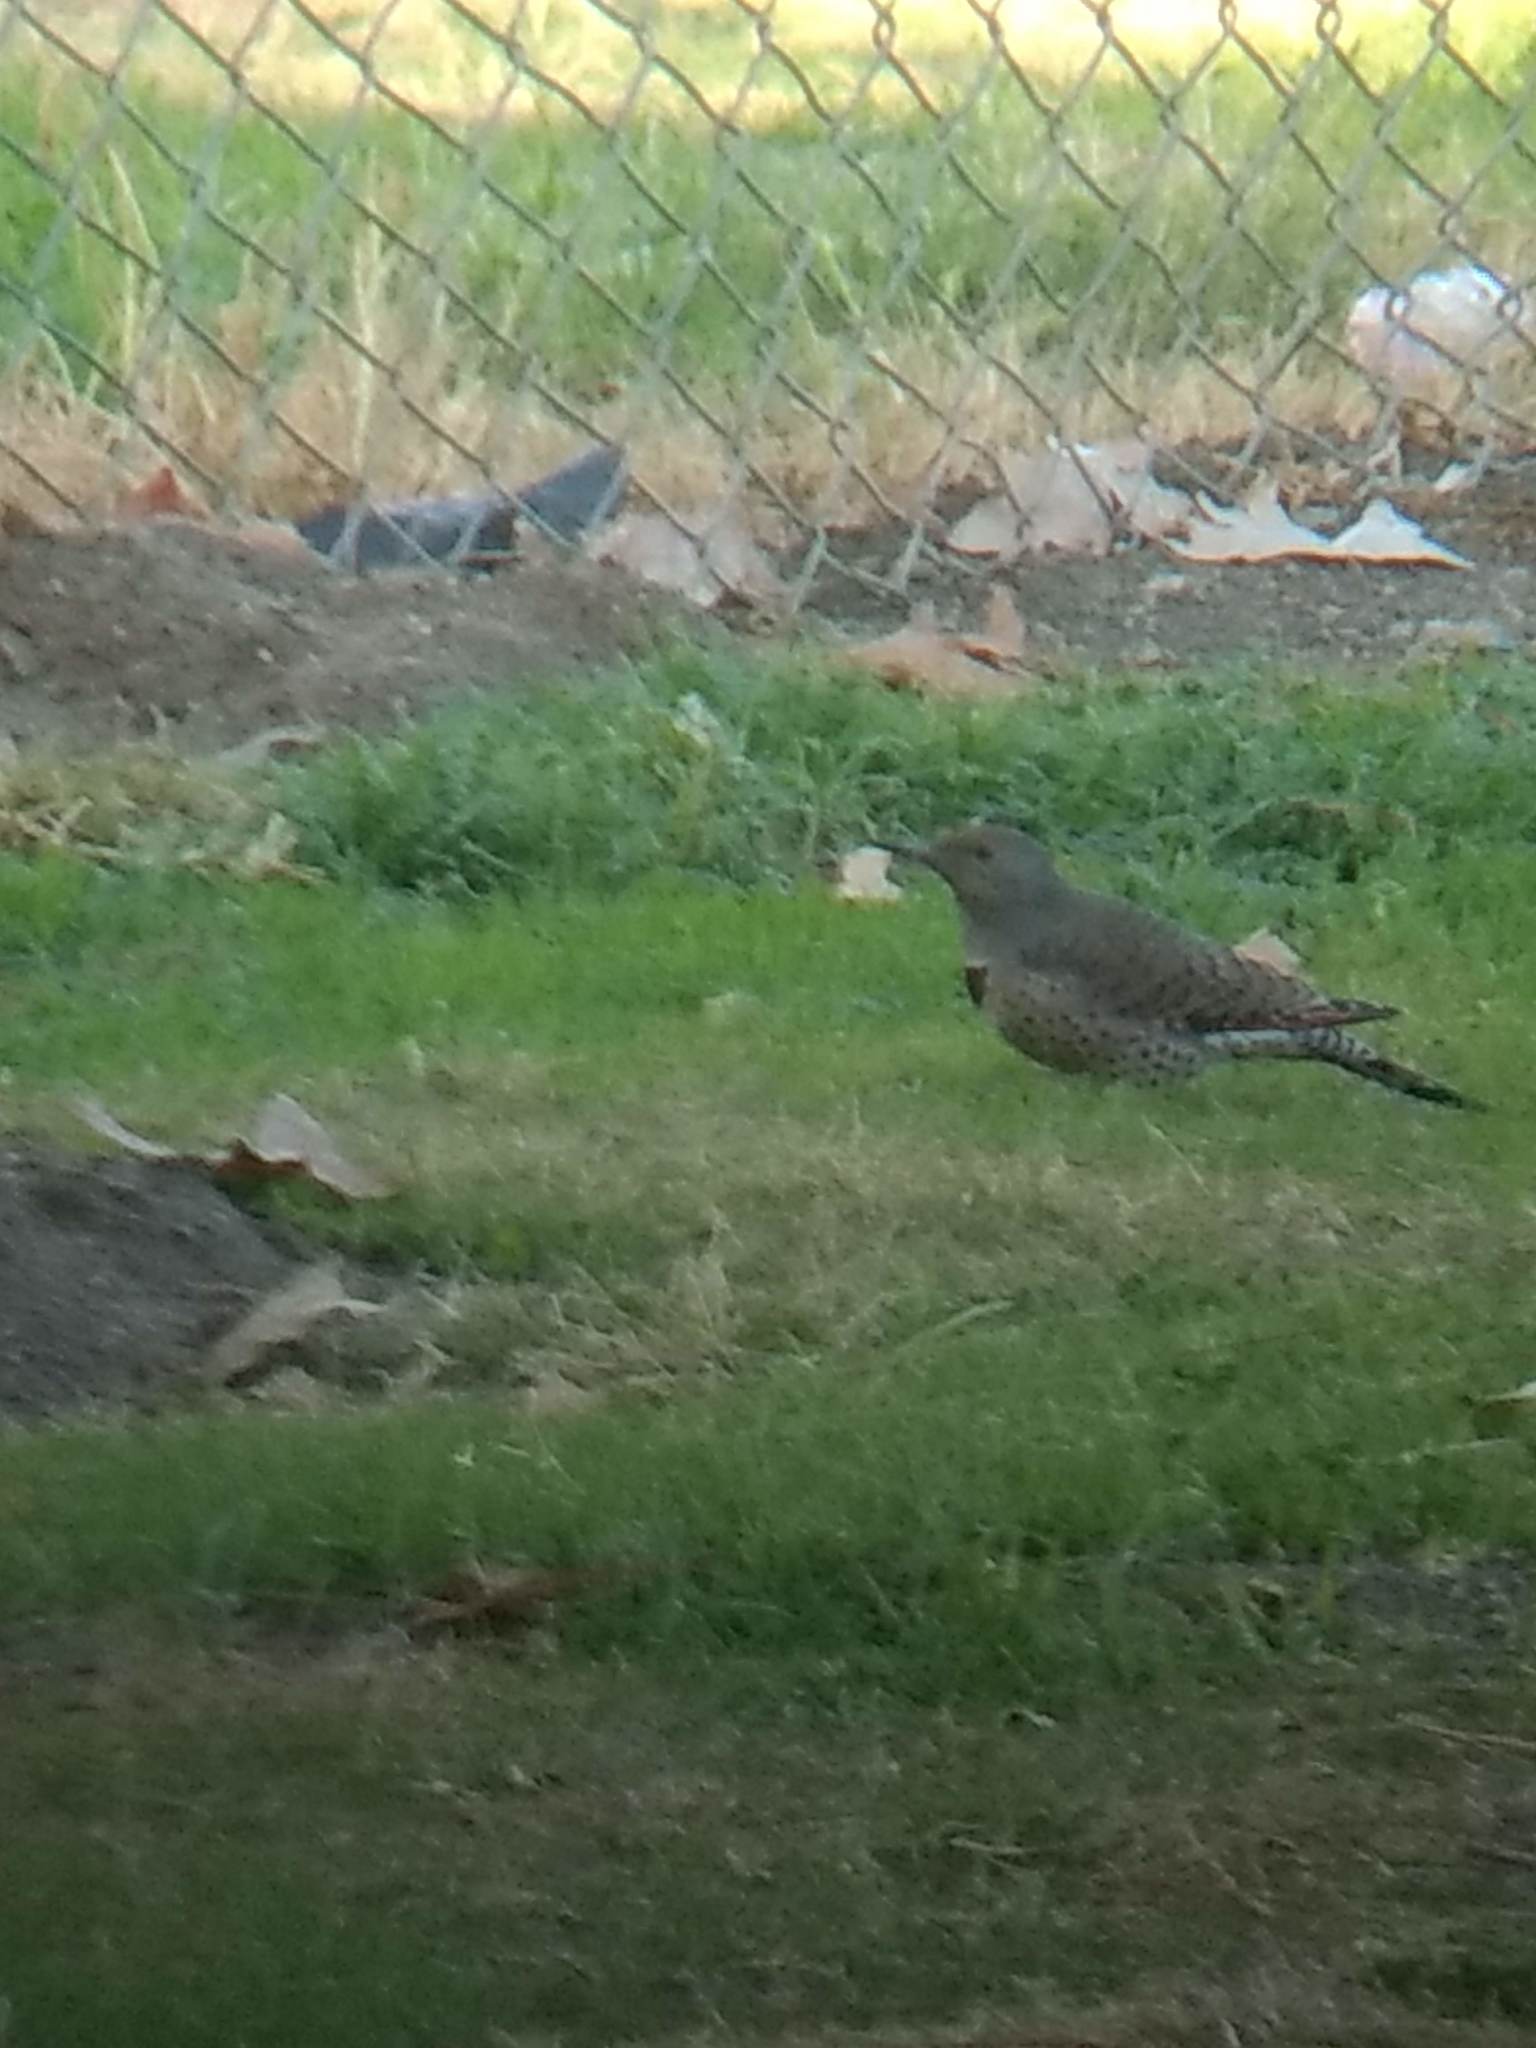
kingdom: Animalia
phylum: Chordata
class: Aves
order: Piciformes
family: Picidae
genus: Colaptes
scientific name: Colaptes auratus
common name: Northern flicker
